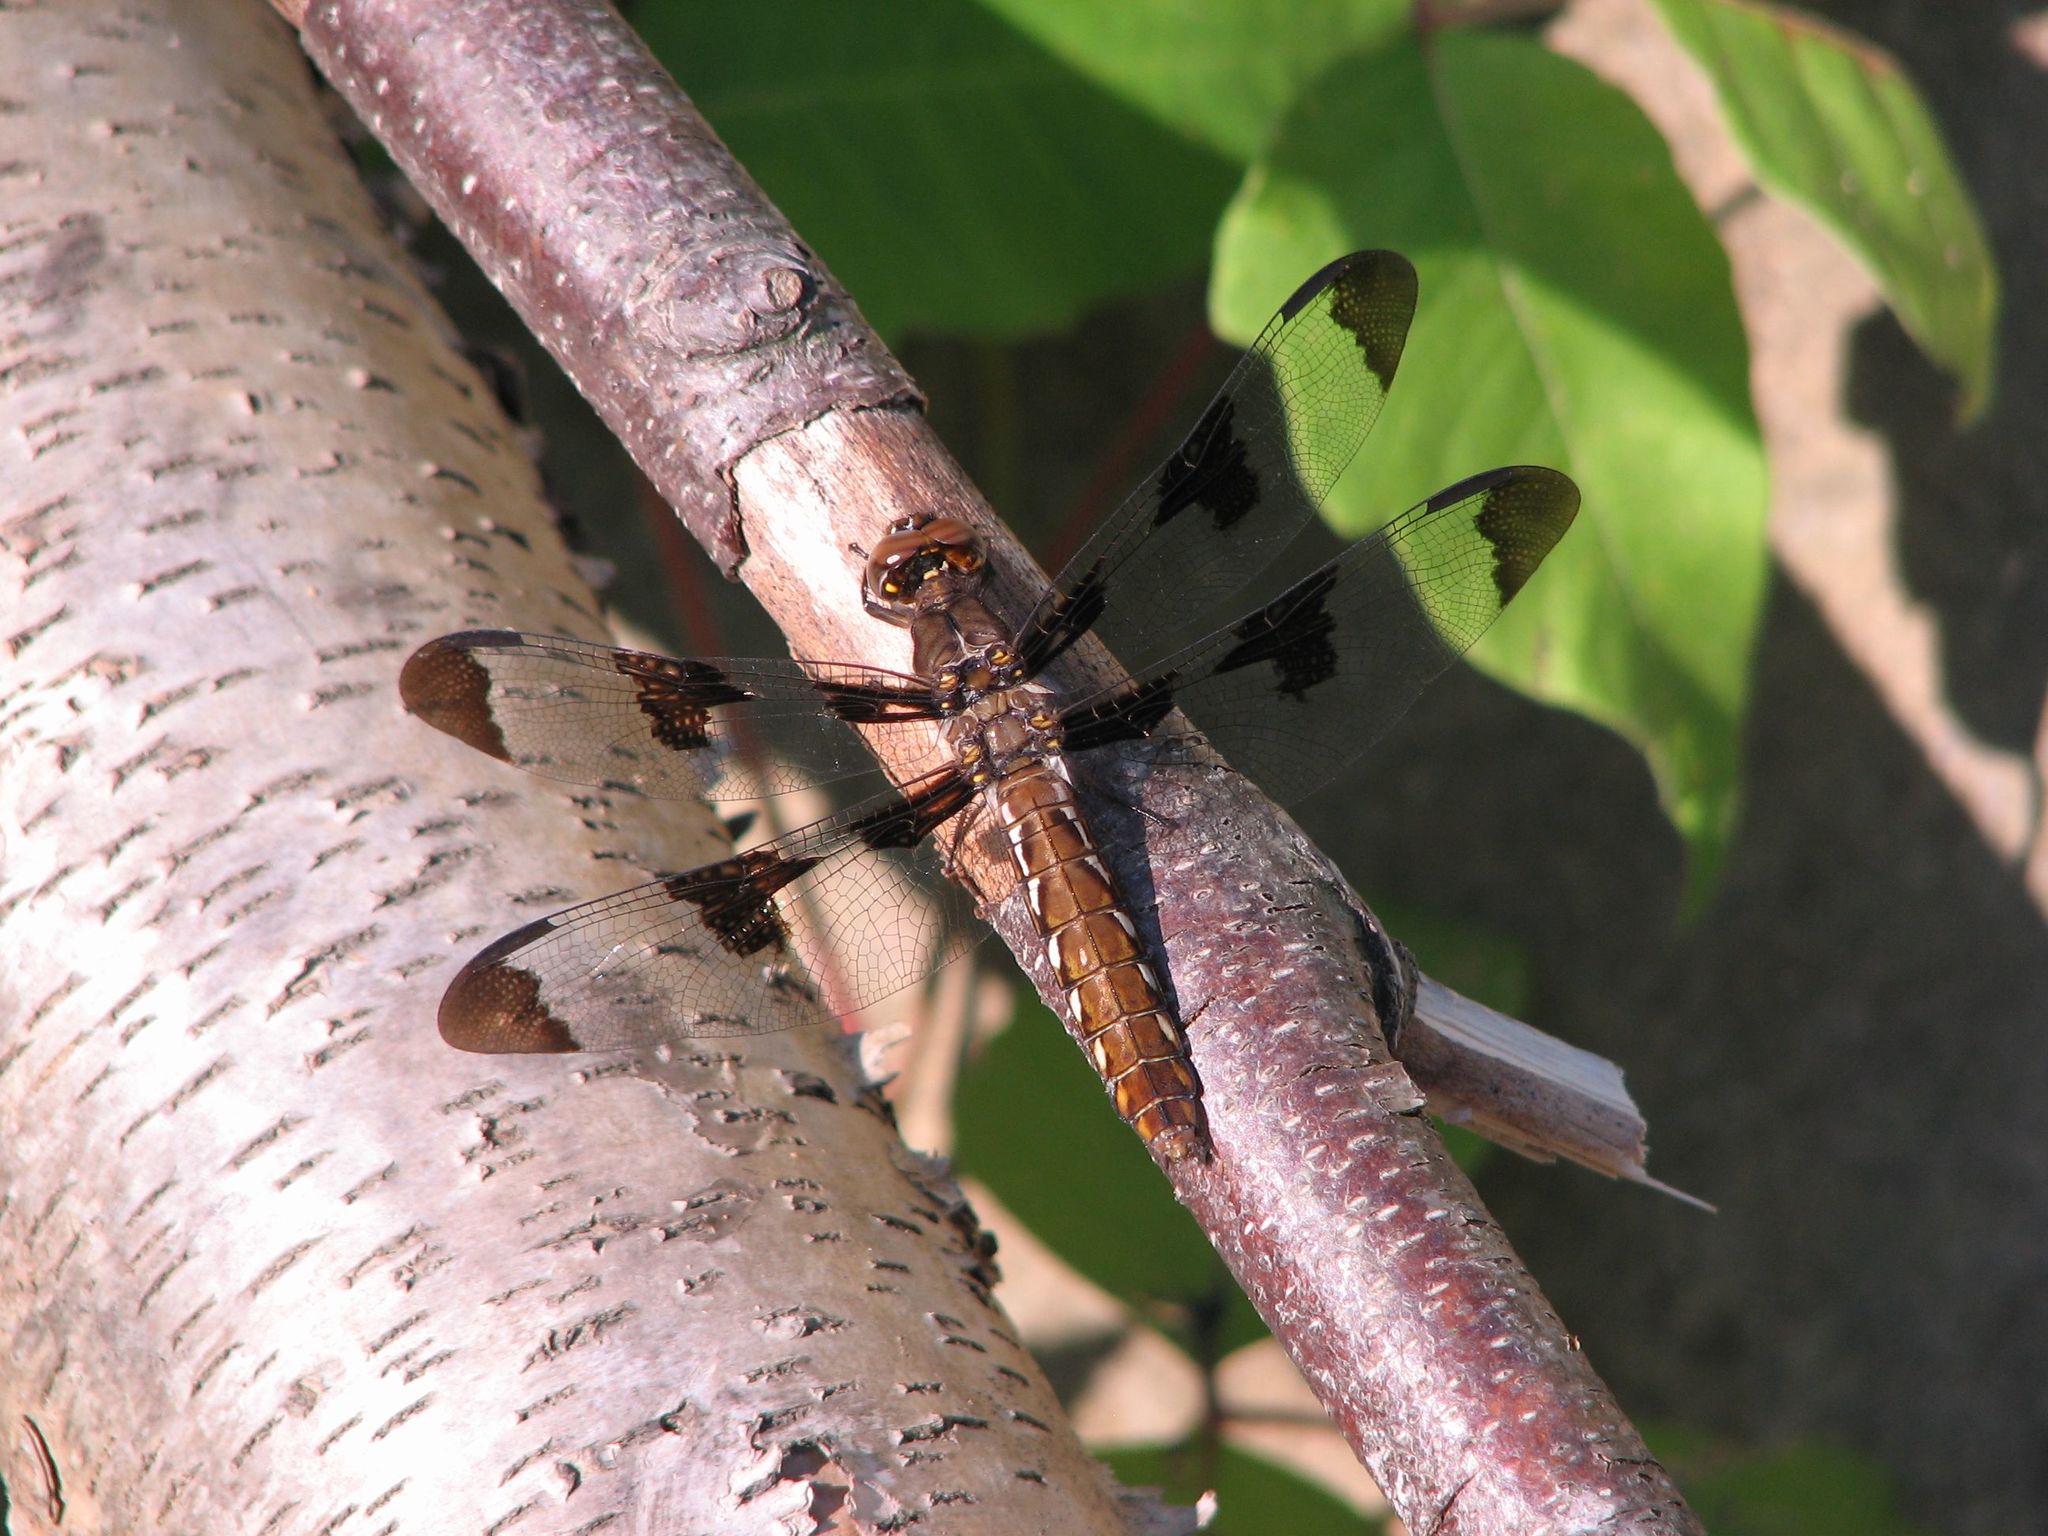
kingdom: Animalia
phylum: Arthropoda
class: Insecta
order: Odonata
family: Libellulidae
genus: Plathemis
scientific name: Plathemis lydia
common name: Common whitetail
